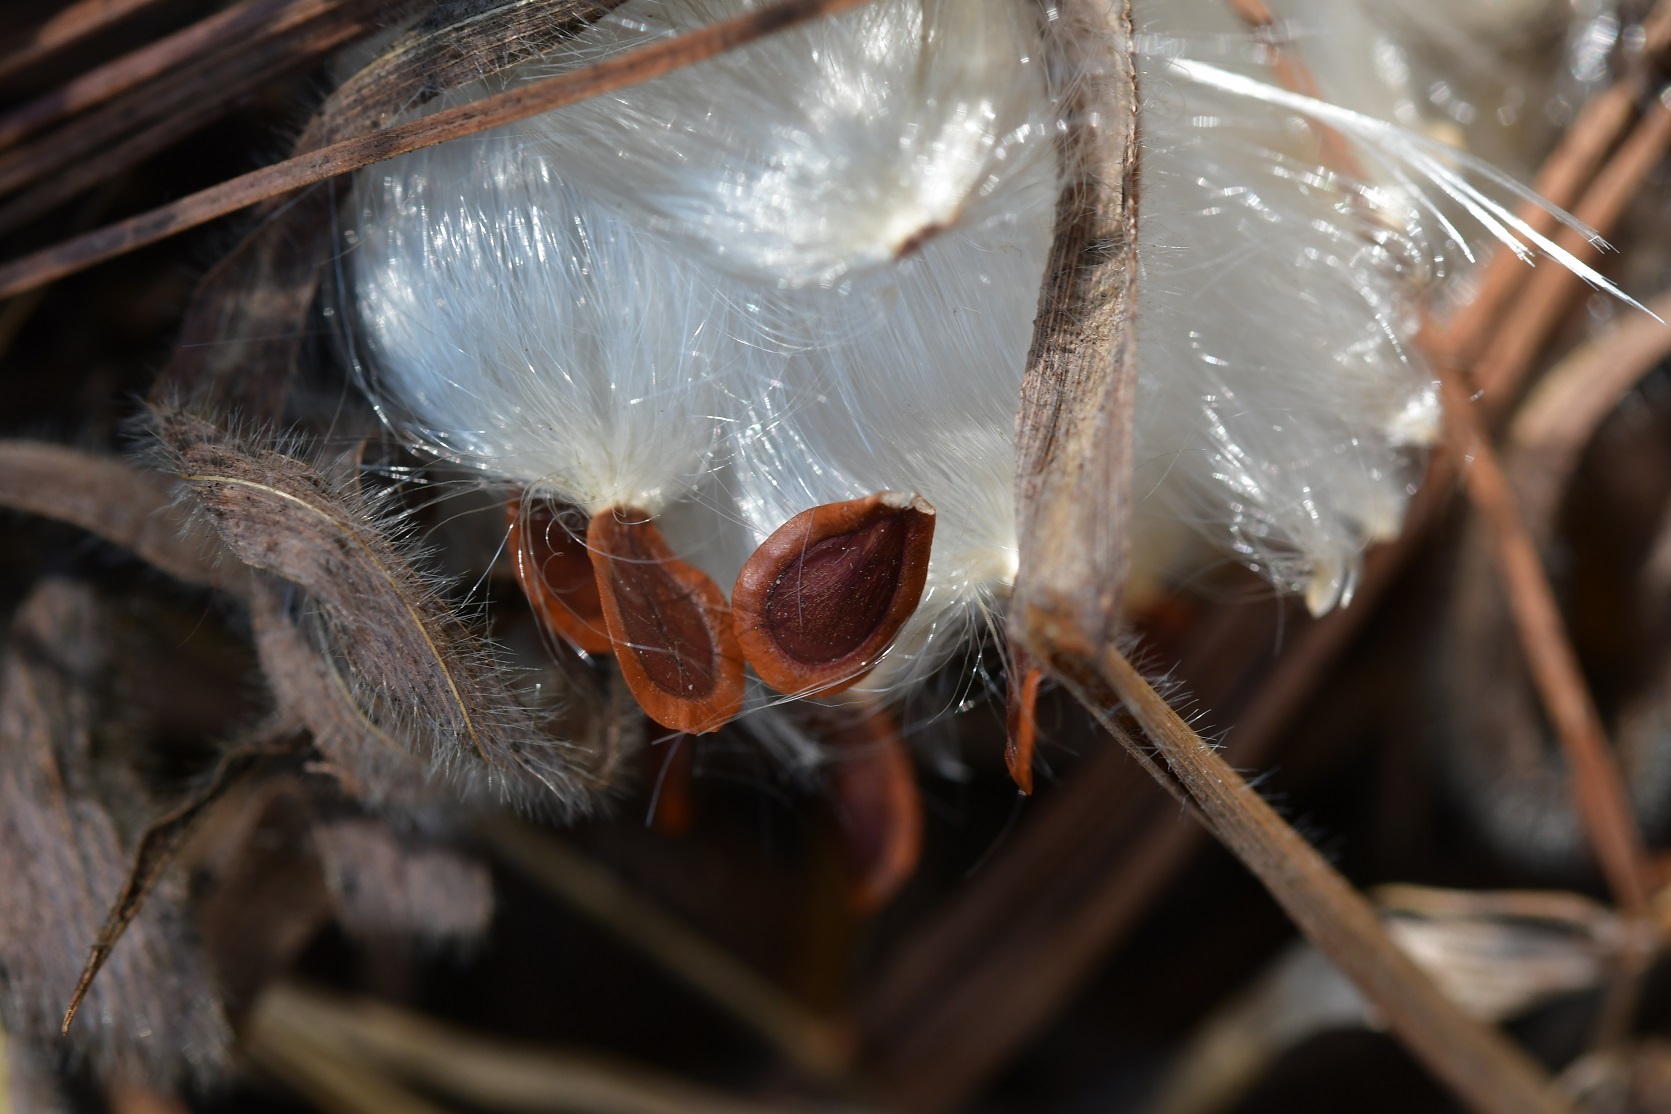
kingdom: Plantae
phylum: Tracheophyta
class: Magnoliopsida
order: Gentianales
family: Apocynaceae
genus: Pherotrichis
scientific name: Pherotrichis villosa
